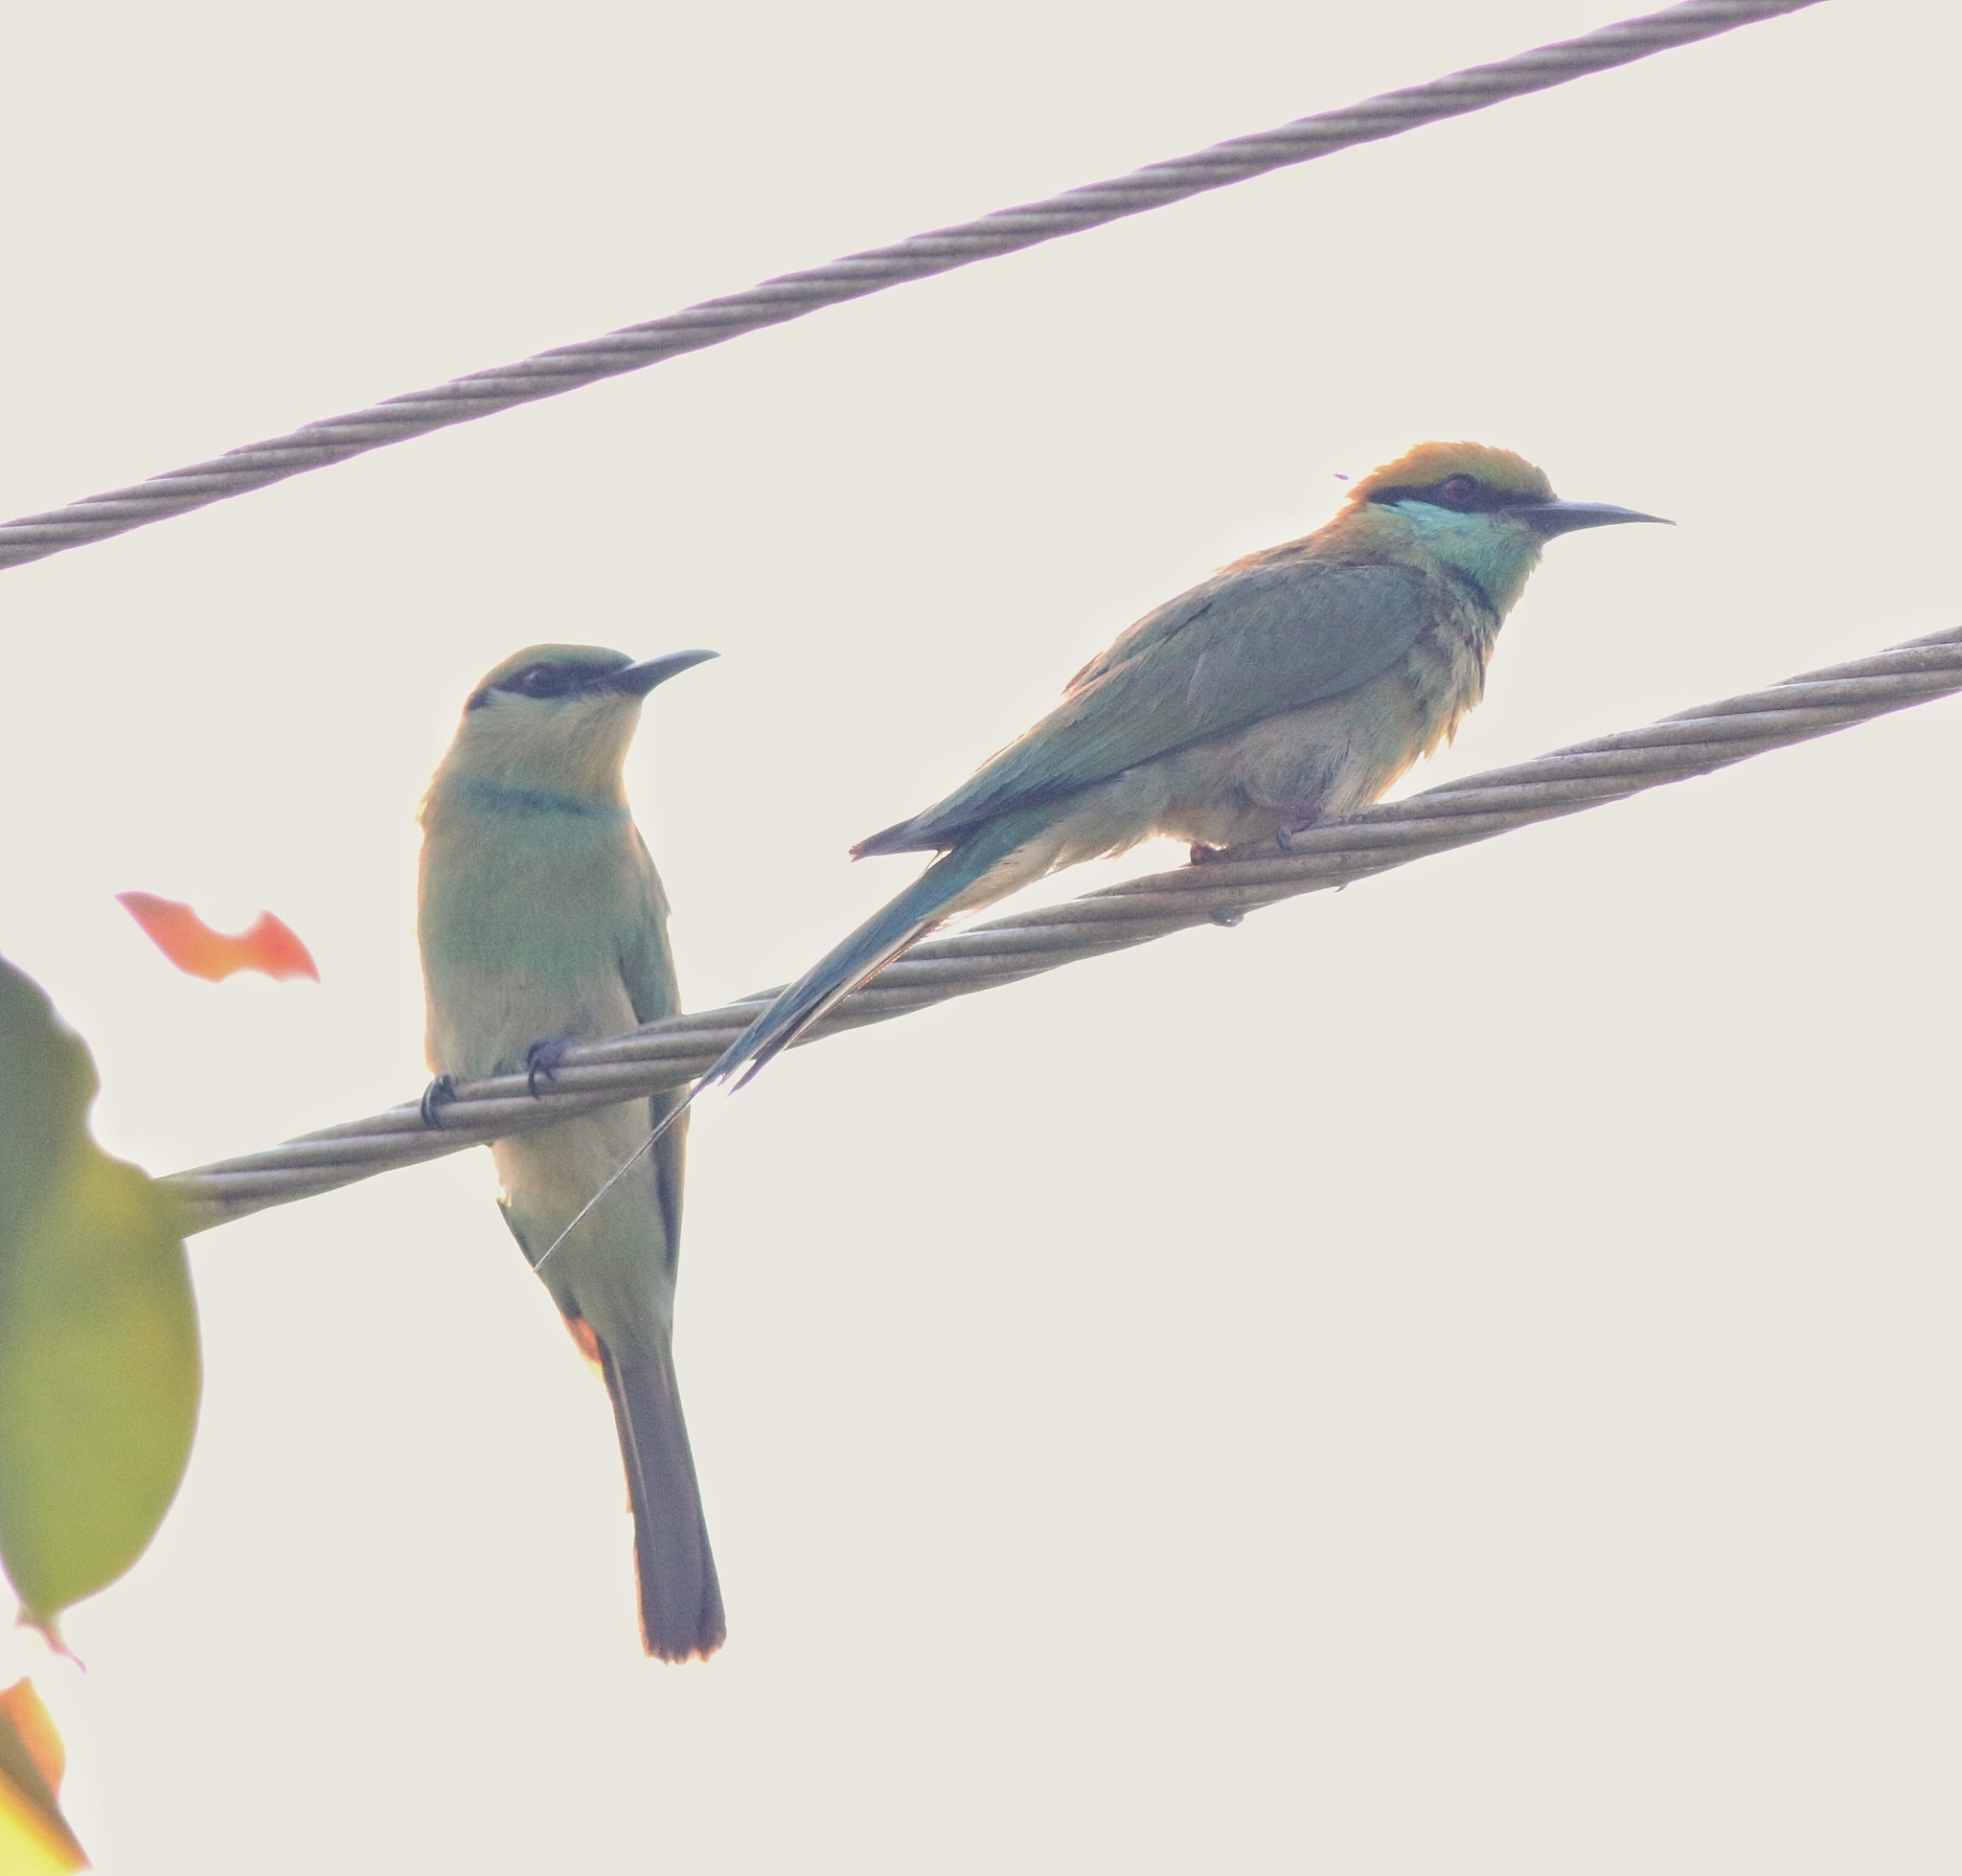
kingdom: Animalia
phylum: Chordata
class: Aves
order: Coraciiformes
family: Meropidae
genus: Merops
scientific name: Merops orientalis
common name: Green bee-eater
